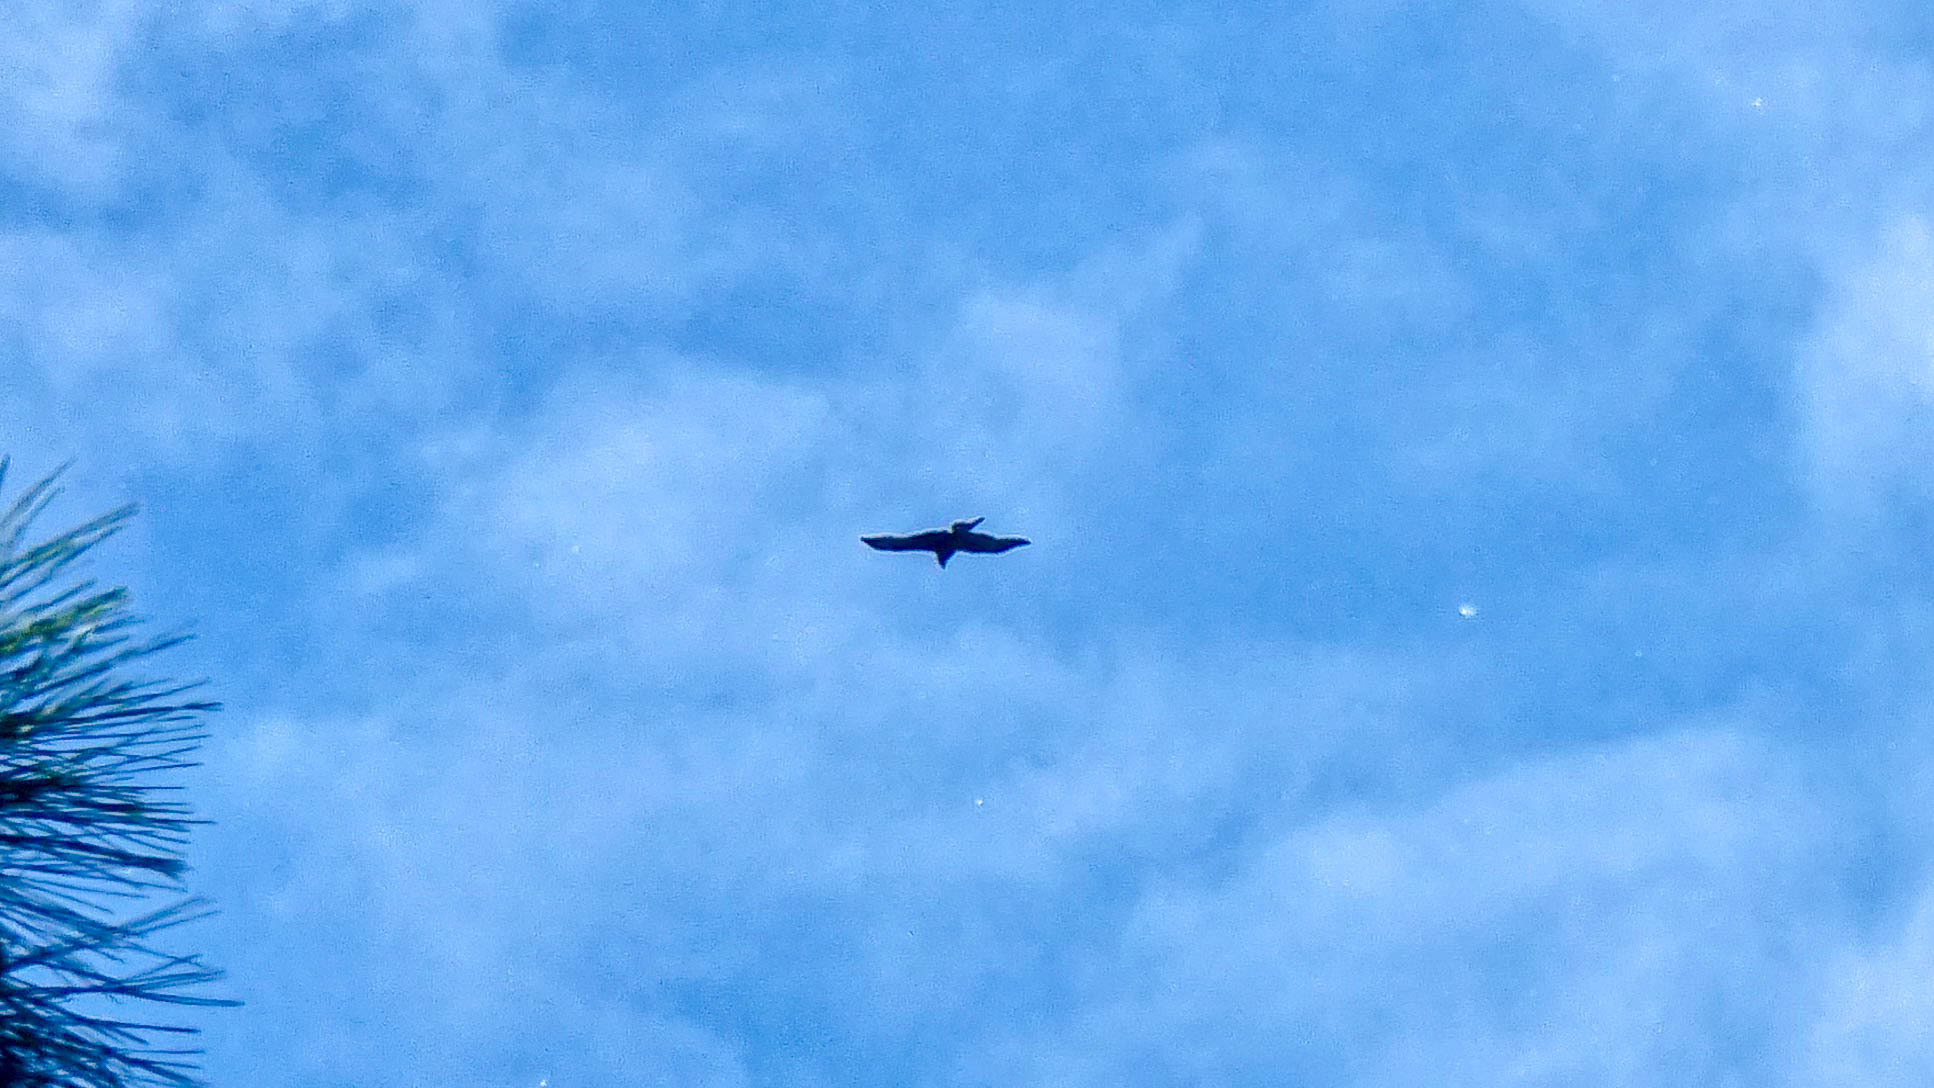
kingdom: Animalia
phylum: Chordata
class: Aves
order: Accipitriformes
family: Accipitridae
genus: Milvus
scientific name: Milvus migrans
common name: Black kite
